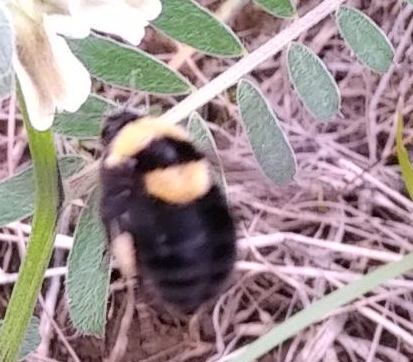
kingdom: Animalia
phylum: Arthropoda
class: Insecta
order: Hymenoptera
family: Apidae
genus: Bombus
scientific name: Bombus argillaceus
